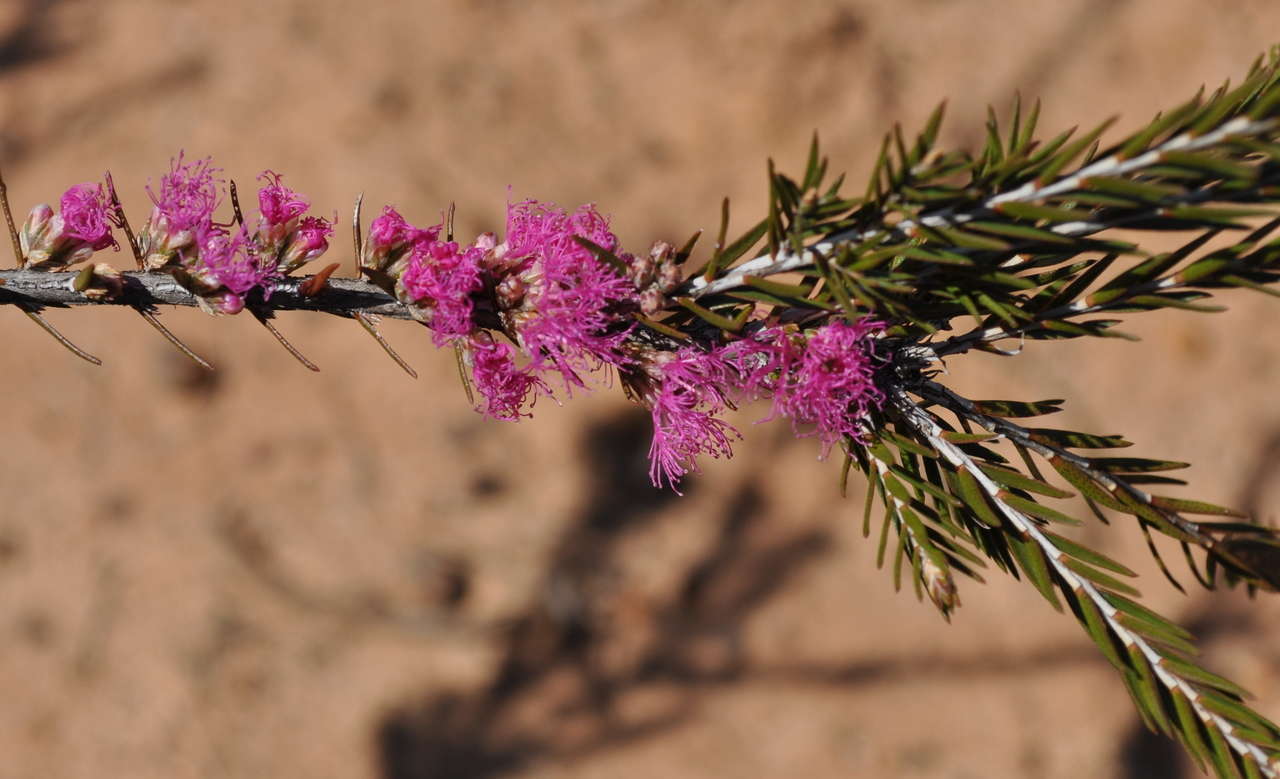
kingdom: Plantae
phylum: Tracheophyta
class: Magnoliopsida
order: Myrtales
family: Myrtaceae
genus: Melaleuca
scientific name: Melaleuca wilsonii
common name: Violet honey myrtle
